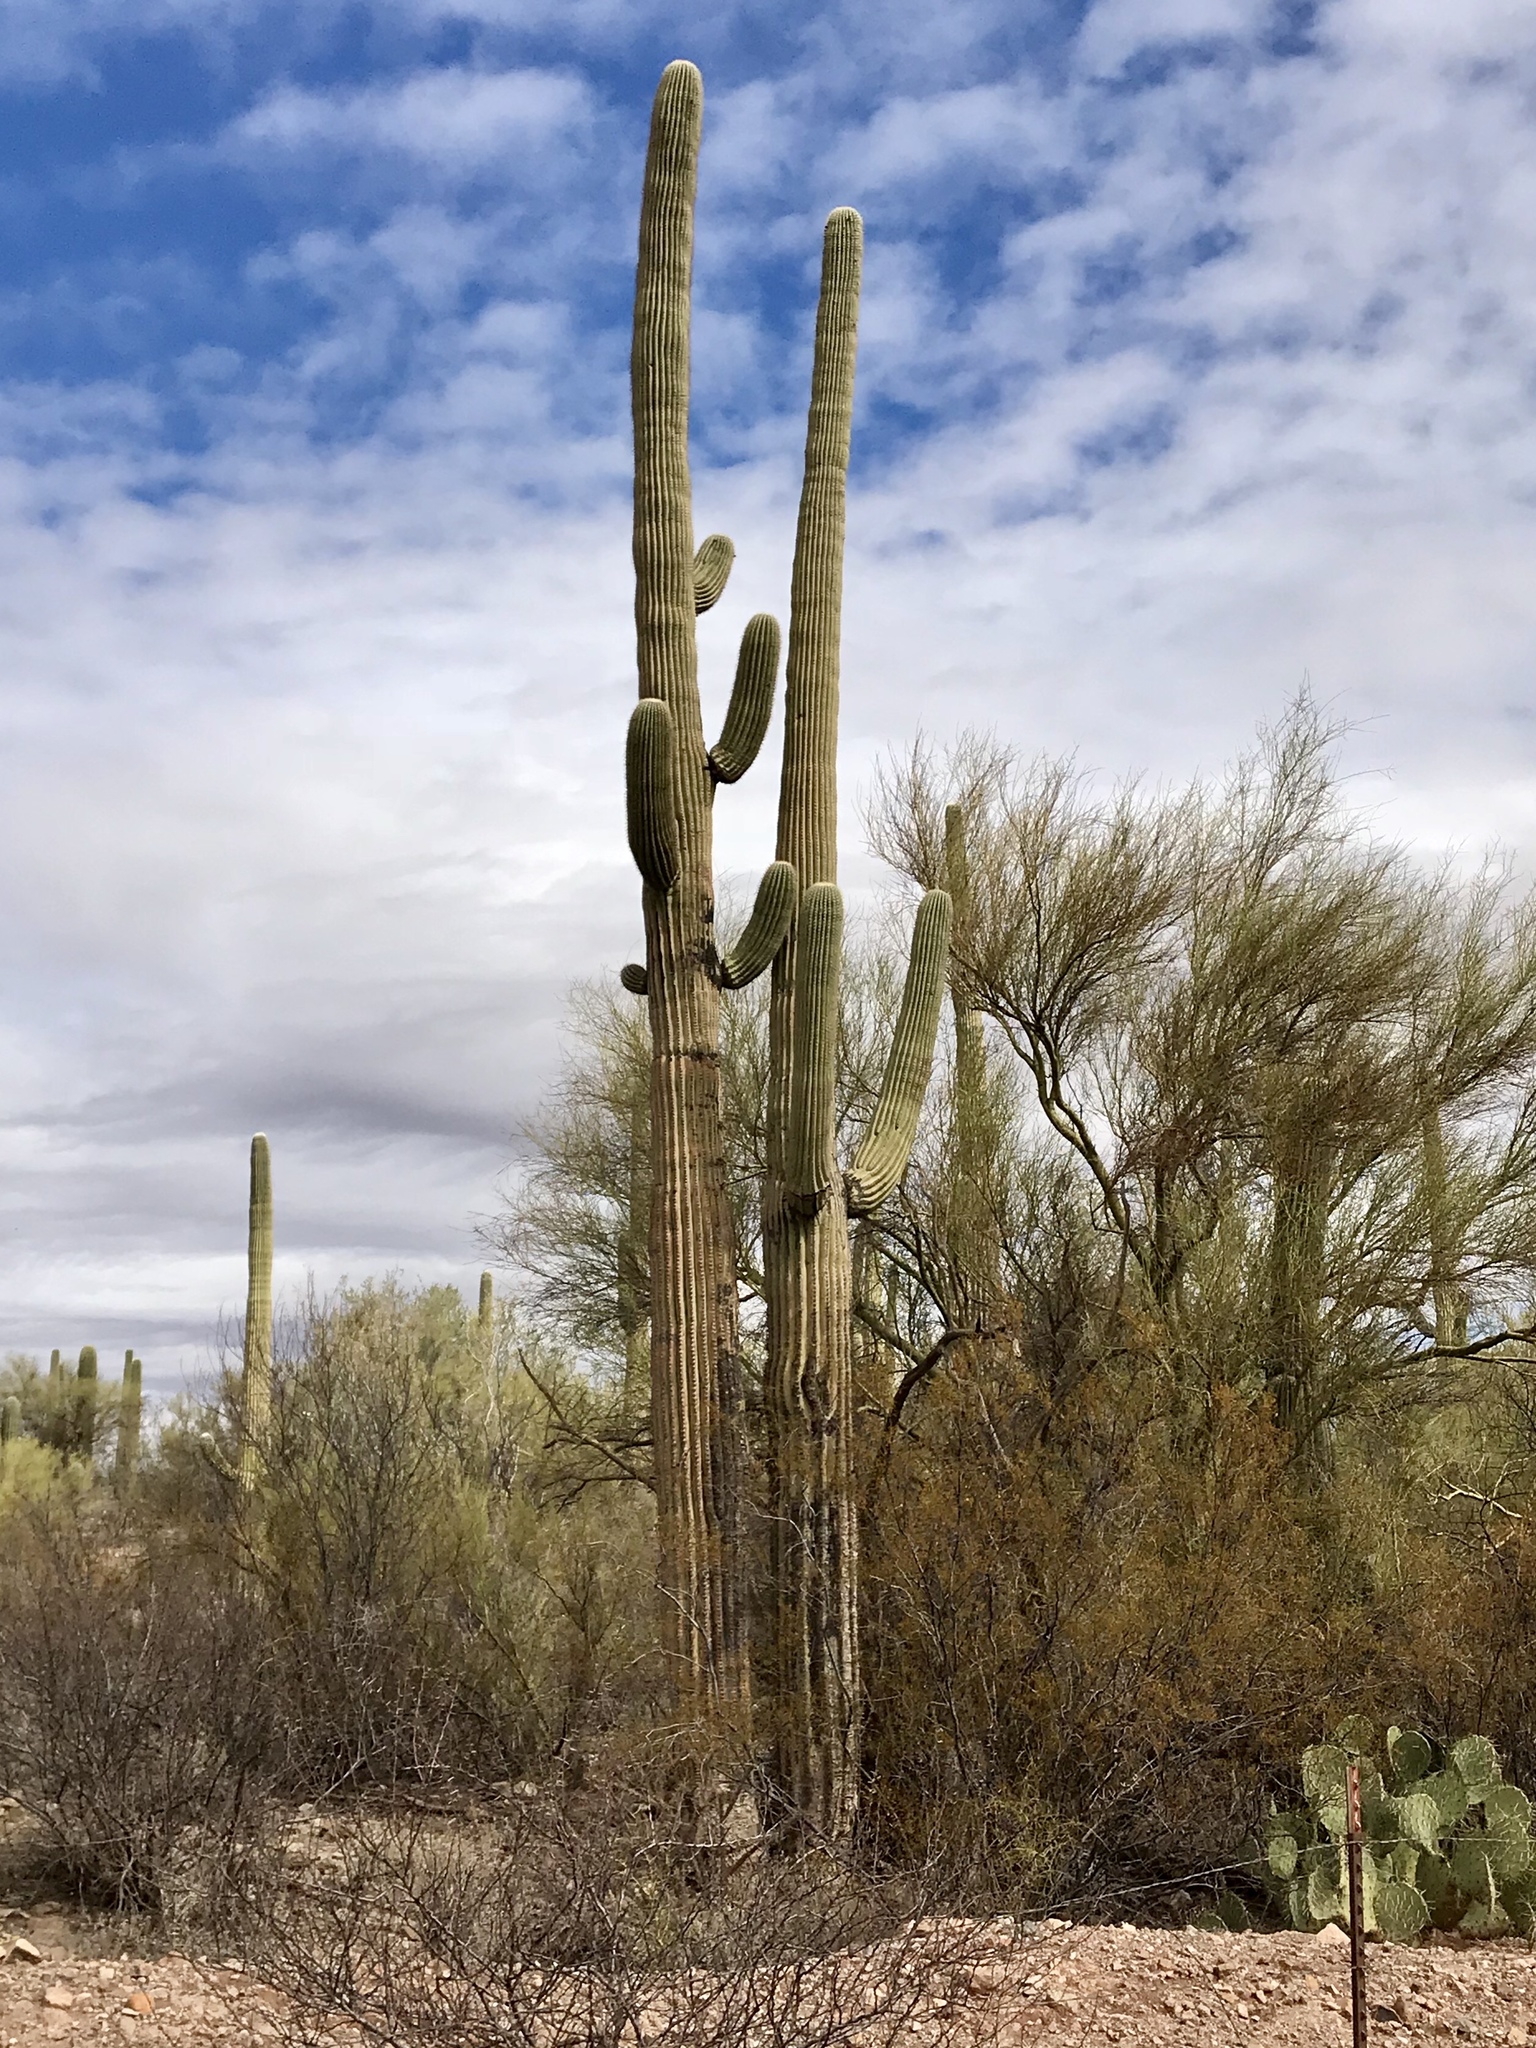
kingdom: Plantae
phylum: Tracheophyta
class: Magnoliopsida
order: Caryophyllales
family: Cactaceae
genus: Carnegiea
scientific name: Carnegiea gigantea
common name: Saguaro
